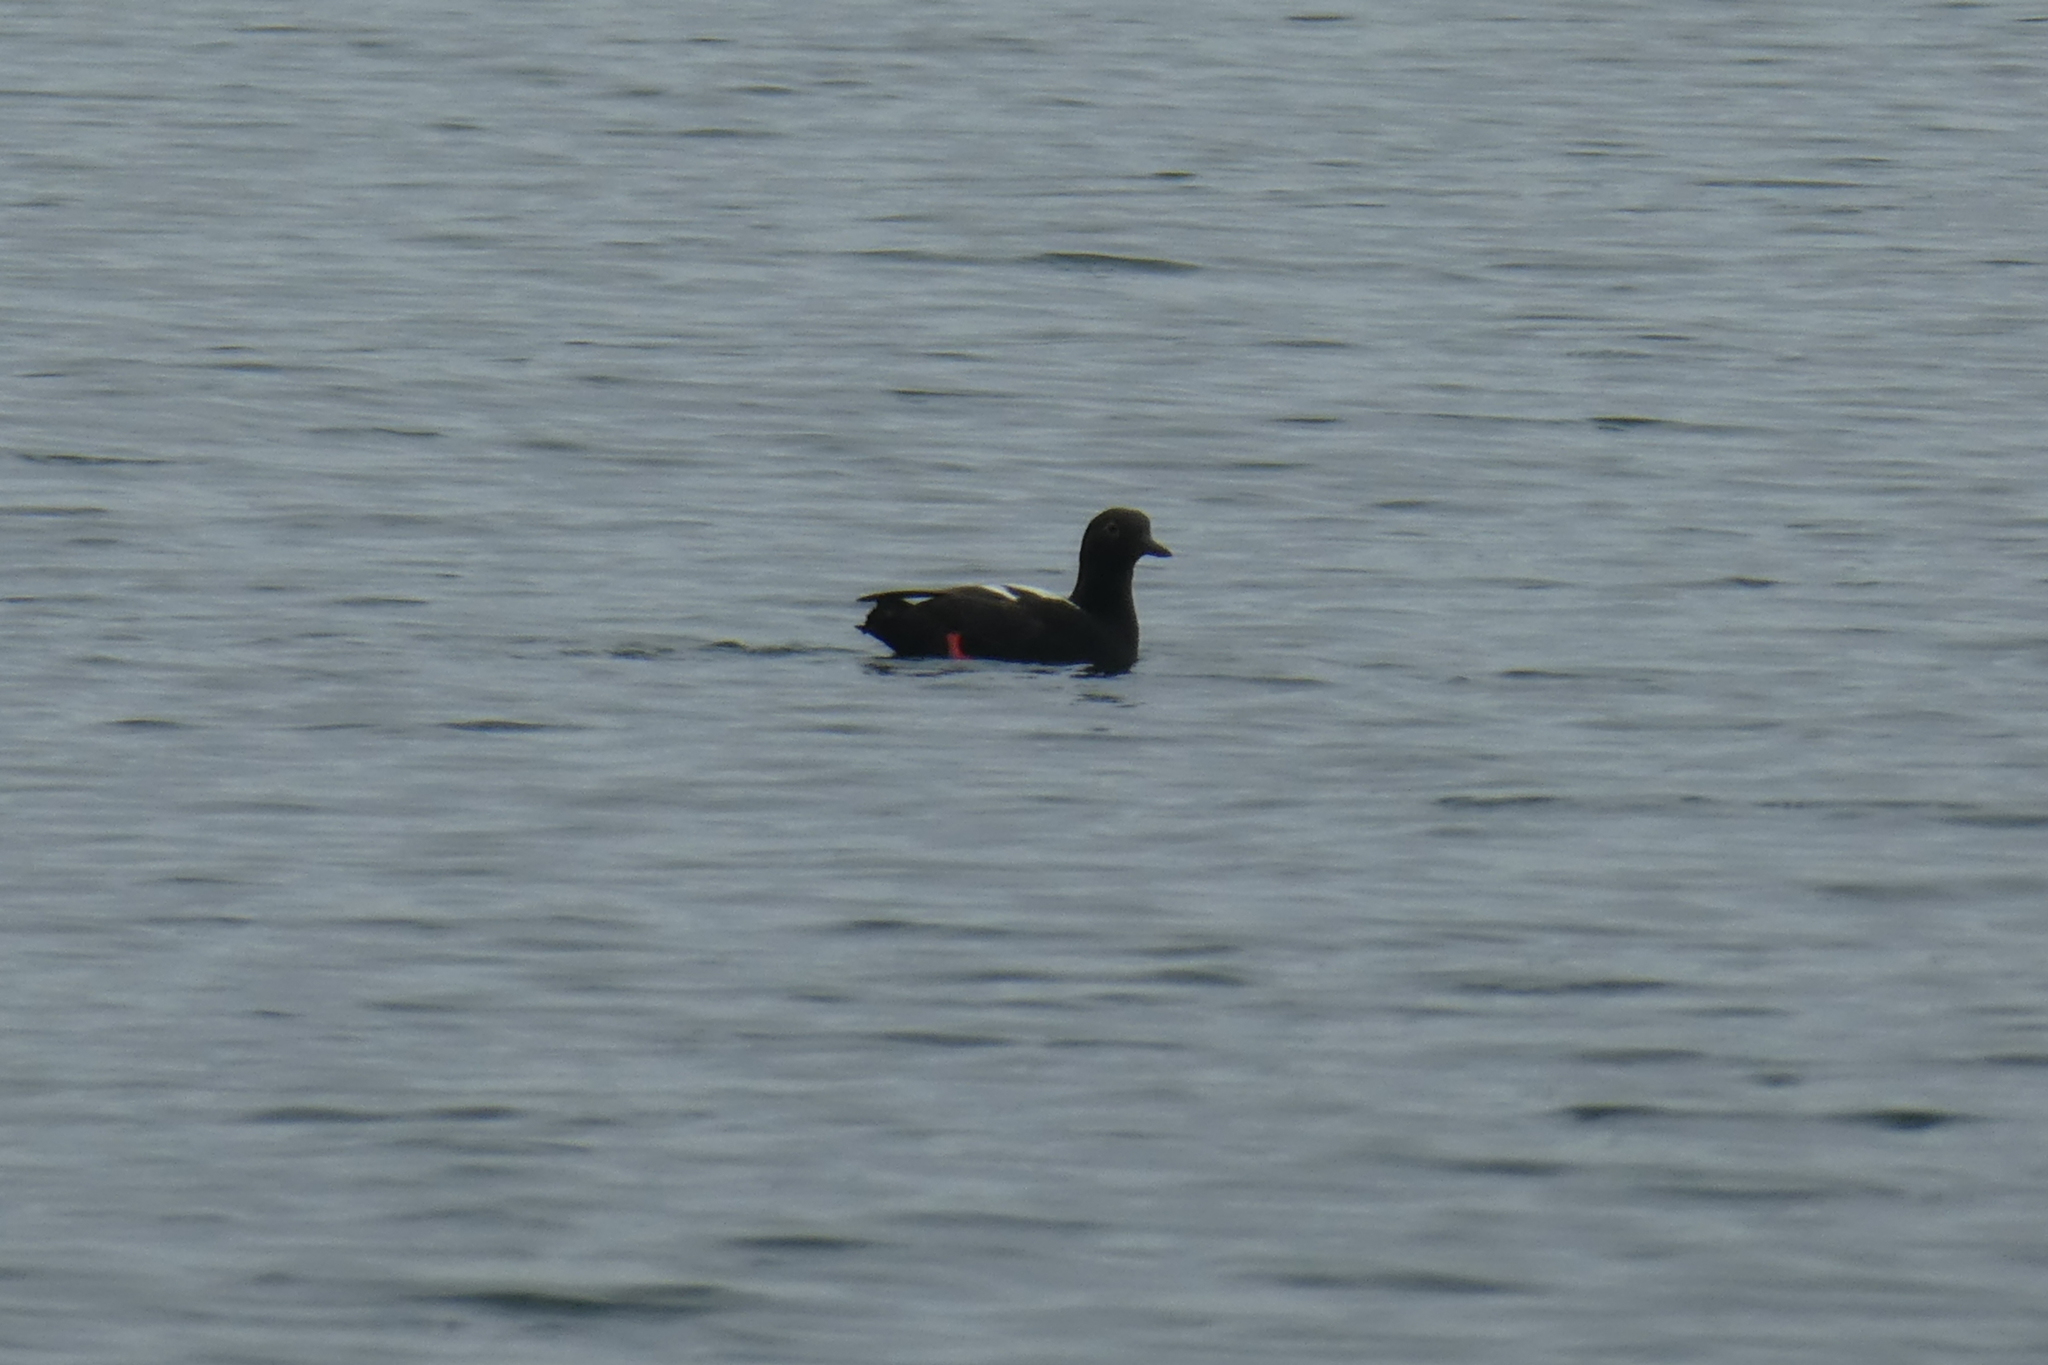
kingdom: Animalia
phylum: Chordata
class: Aves
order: Charadriiformes
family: Alcidae
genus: Cepphus
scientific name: Cepphus columba
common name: Pigeon guillemot
